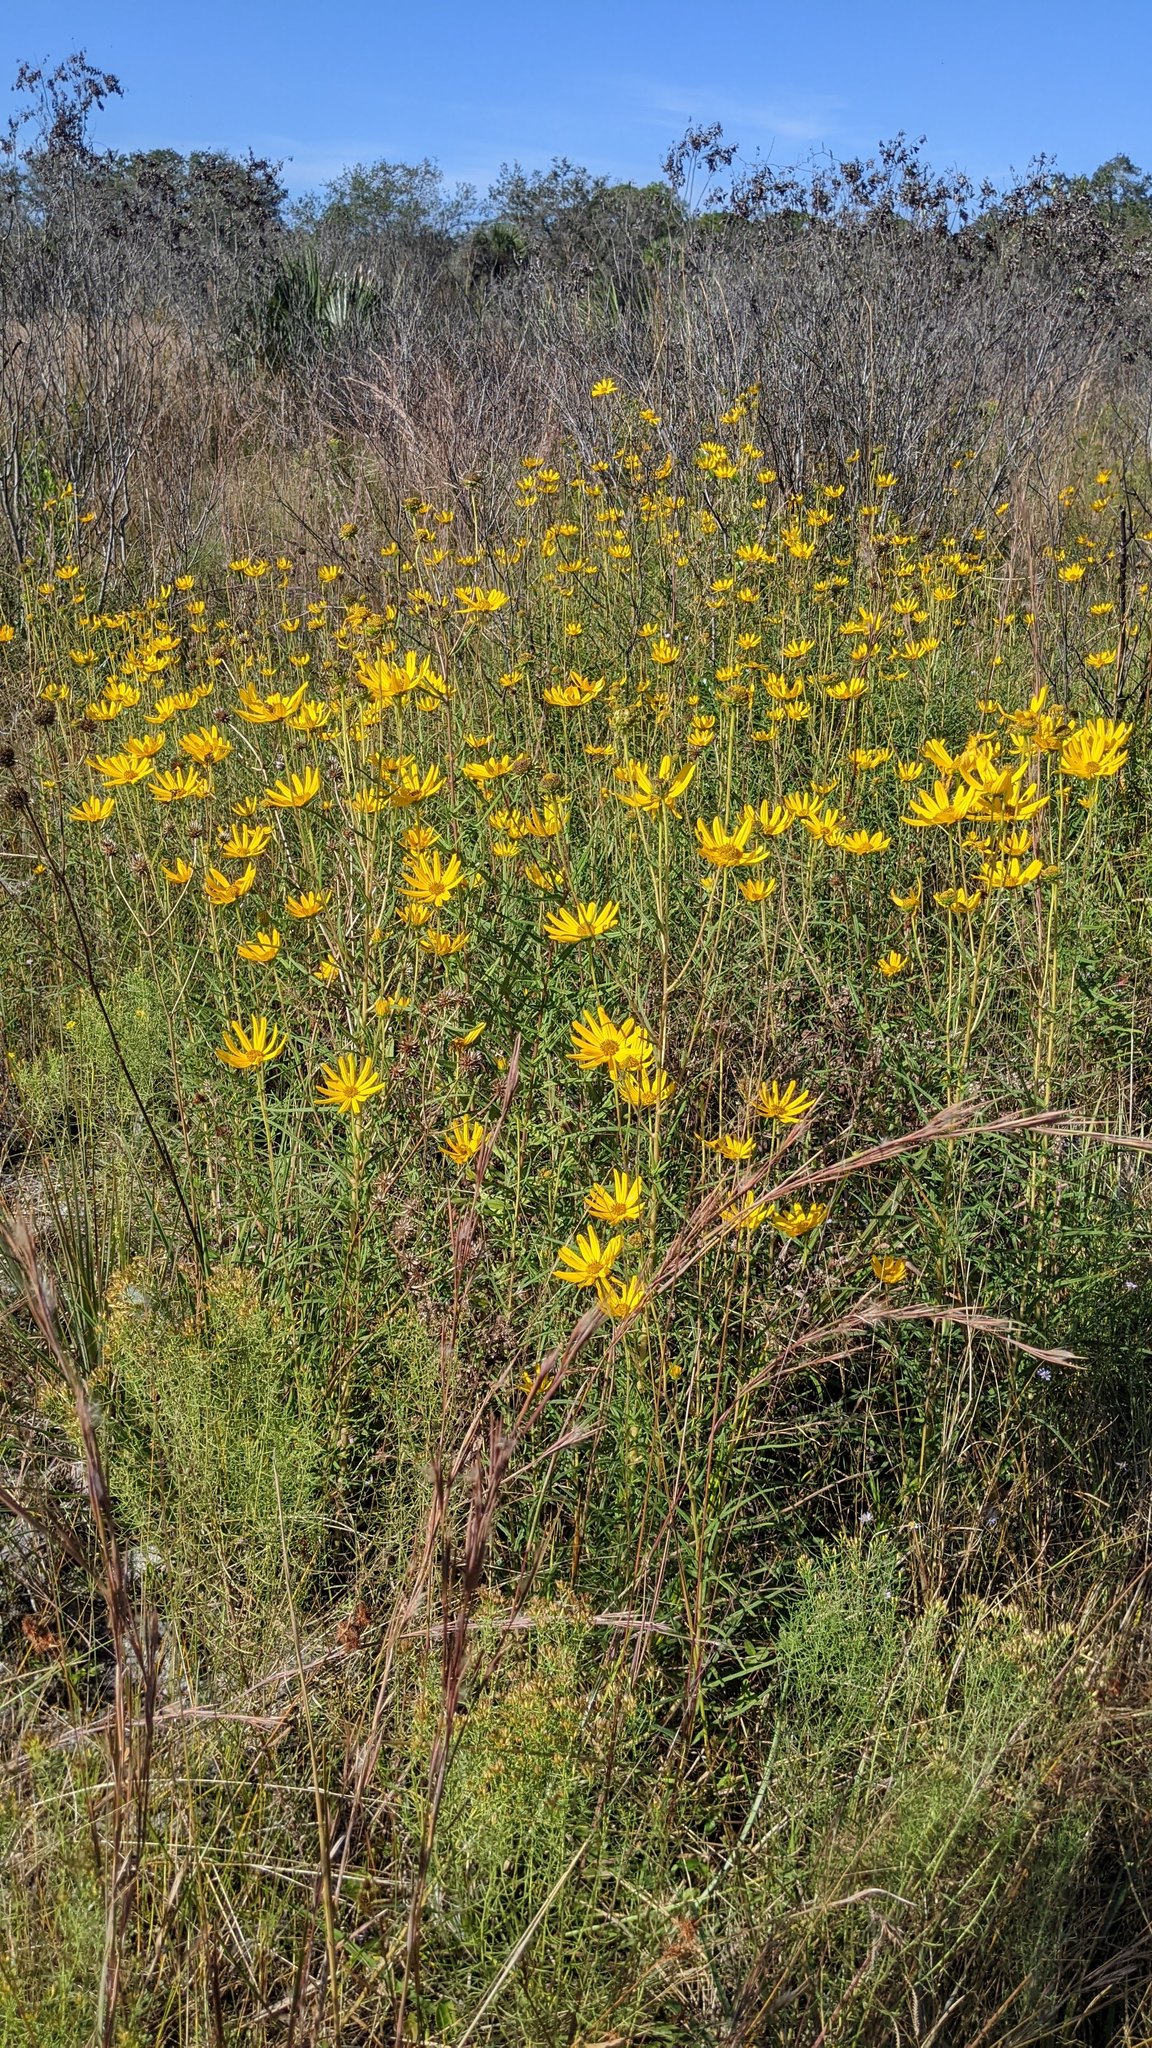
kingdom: Plantae
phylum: Tracheophyta
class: Magnoliopsida
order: Asterales
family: Asteraceae
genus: Helianthus
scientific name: Helianthus angustifolius
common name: Swamp sunflower
